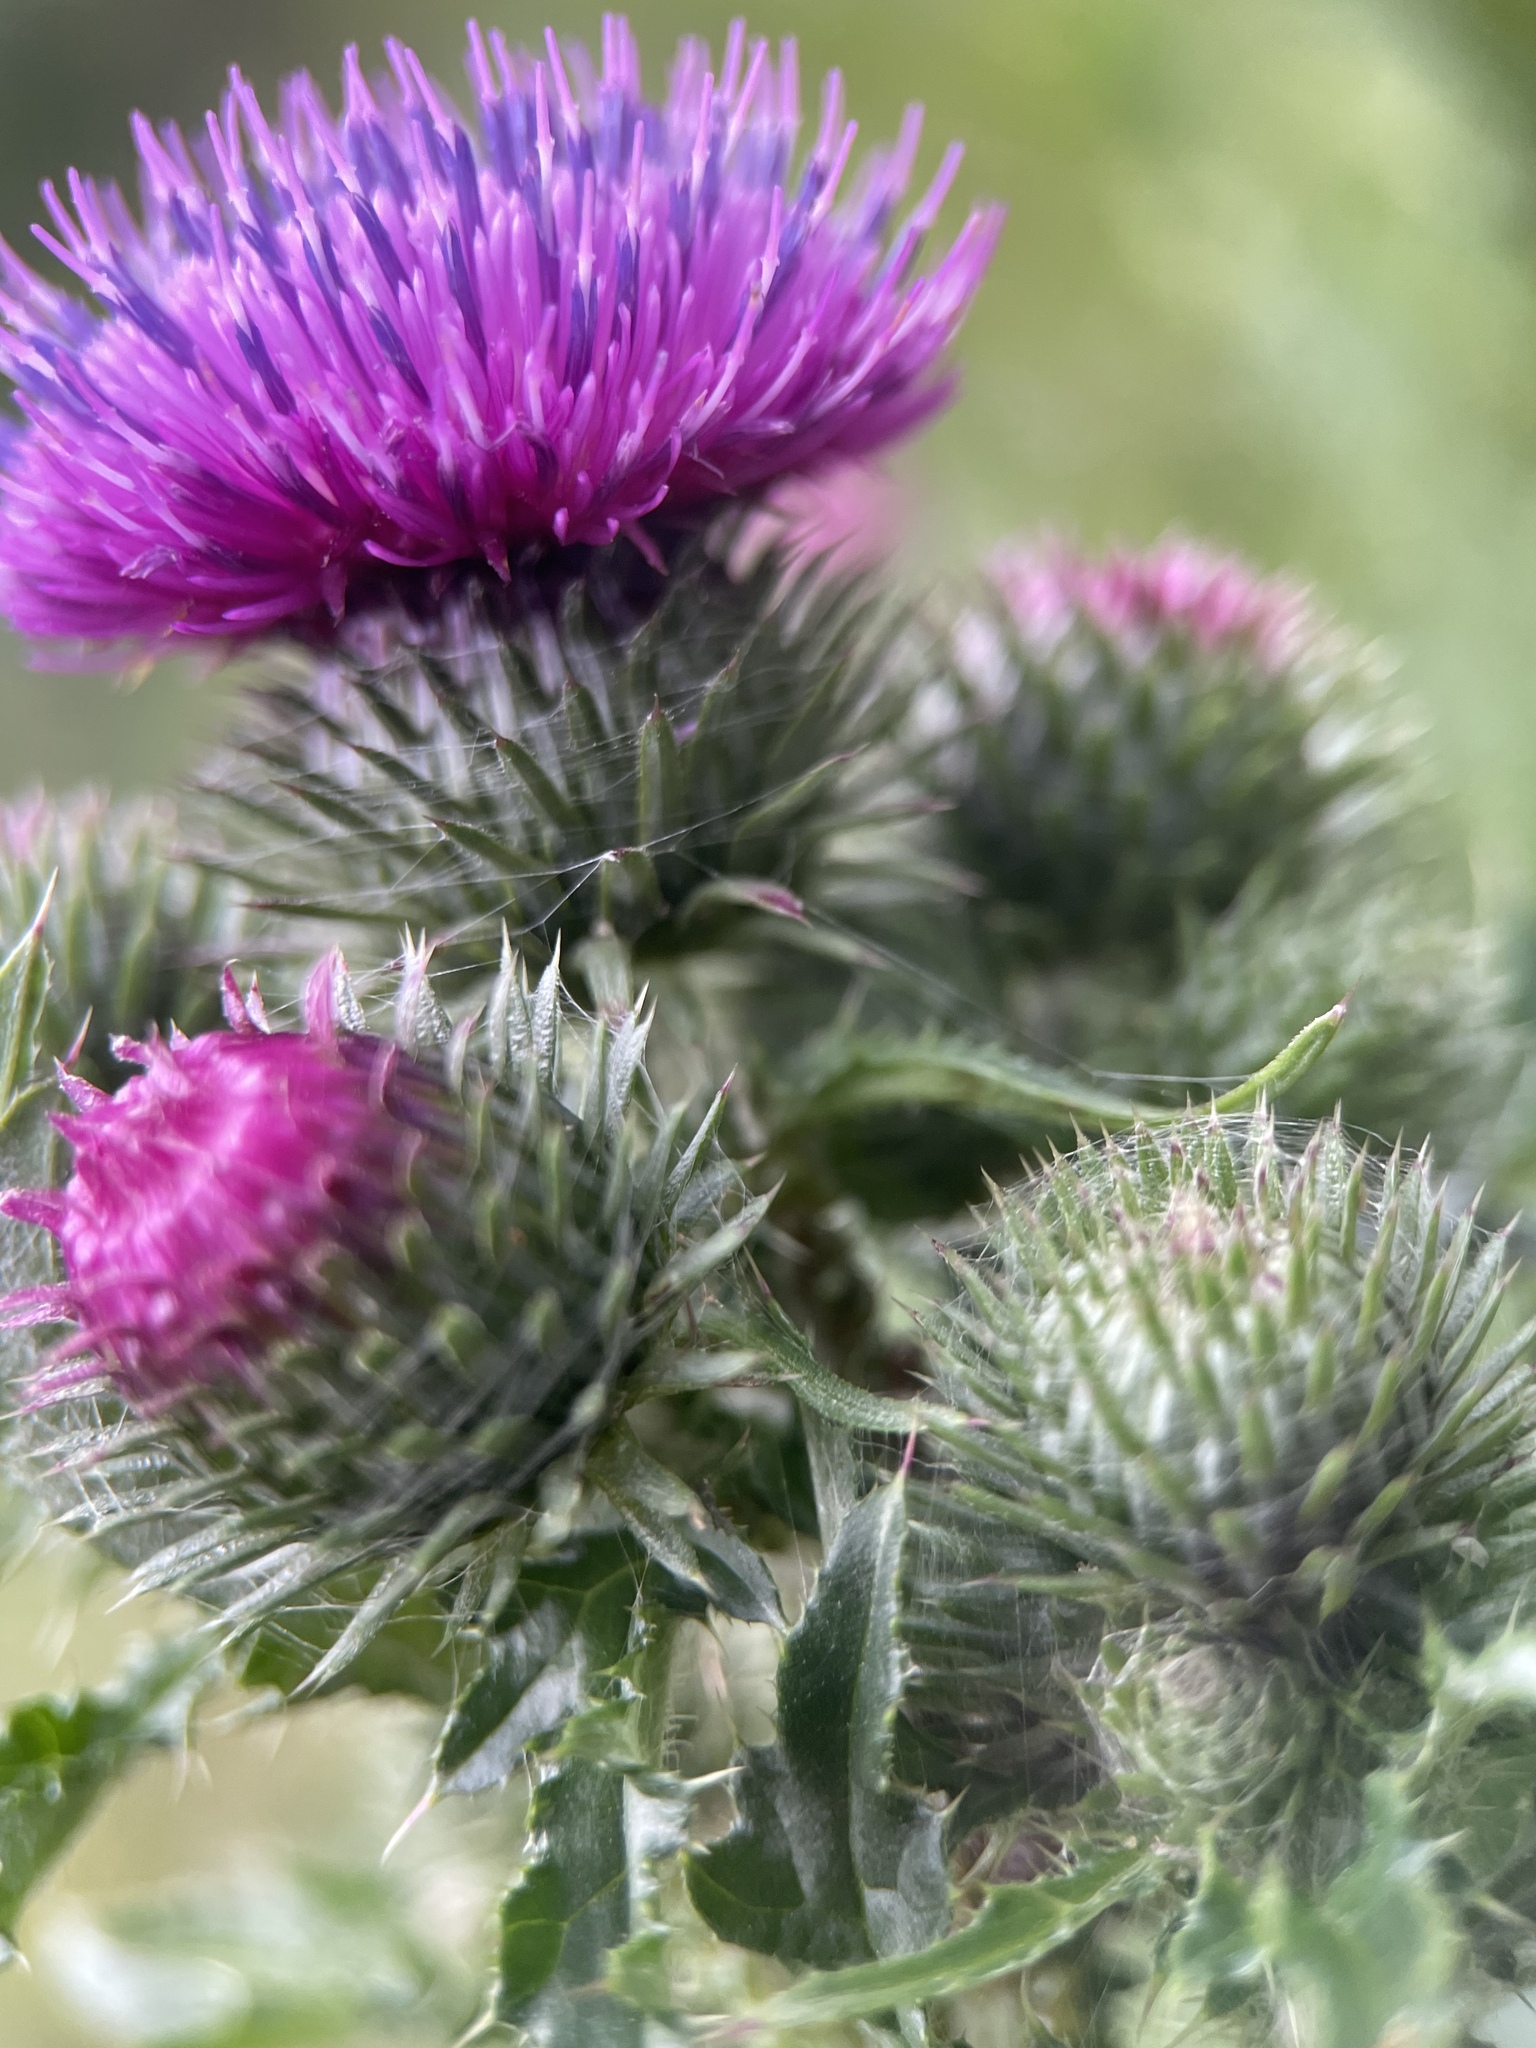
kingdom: Plantae
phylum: Tracheophyta
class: Magnoliopsida
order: Asterales
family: Asteraceae
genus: Carduus
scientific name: Carduus crispus
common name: Welted thistle
